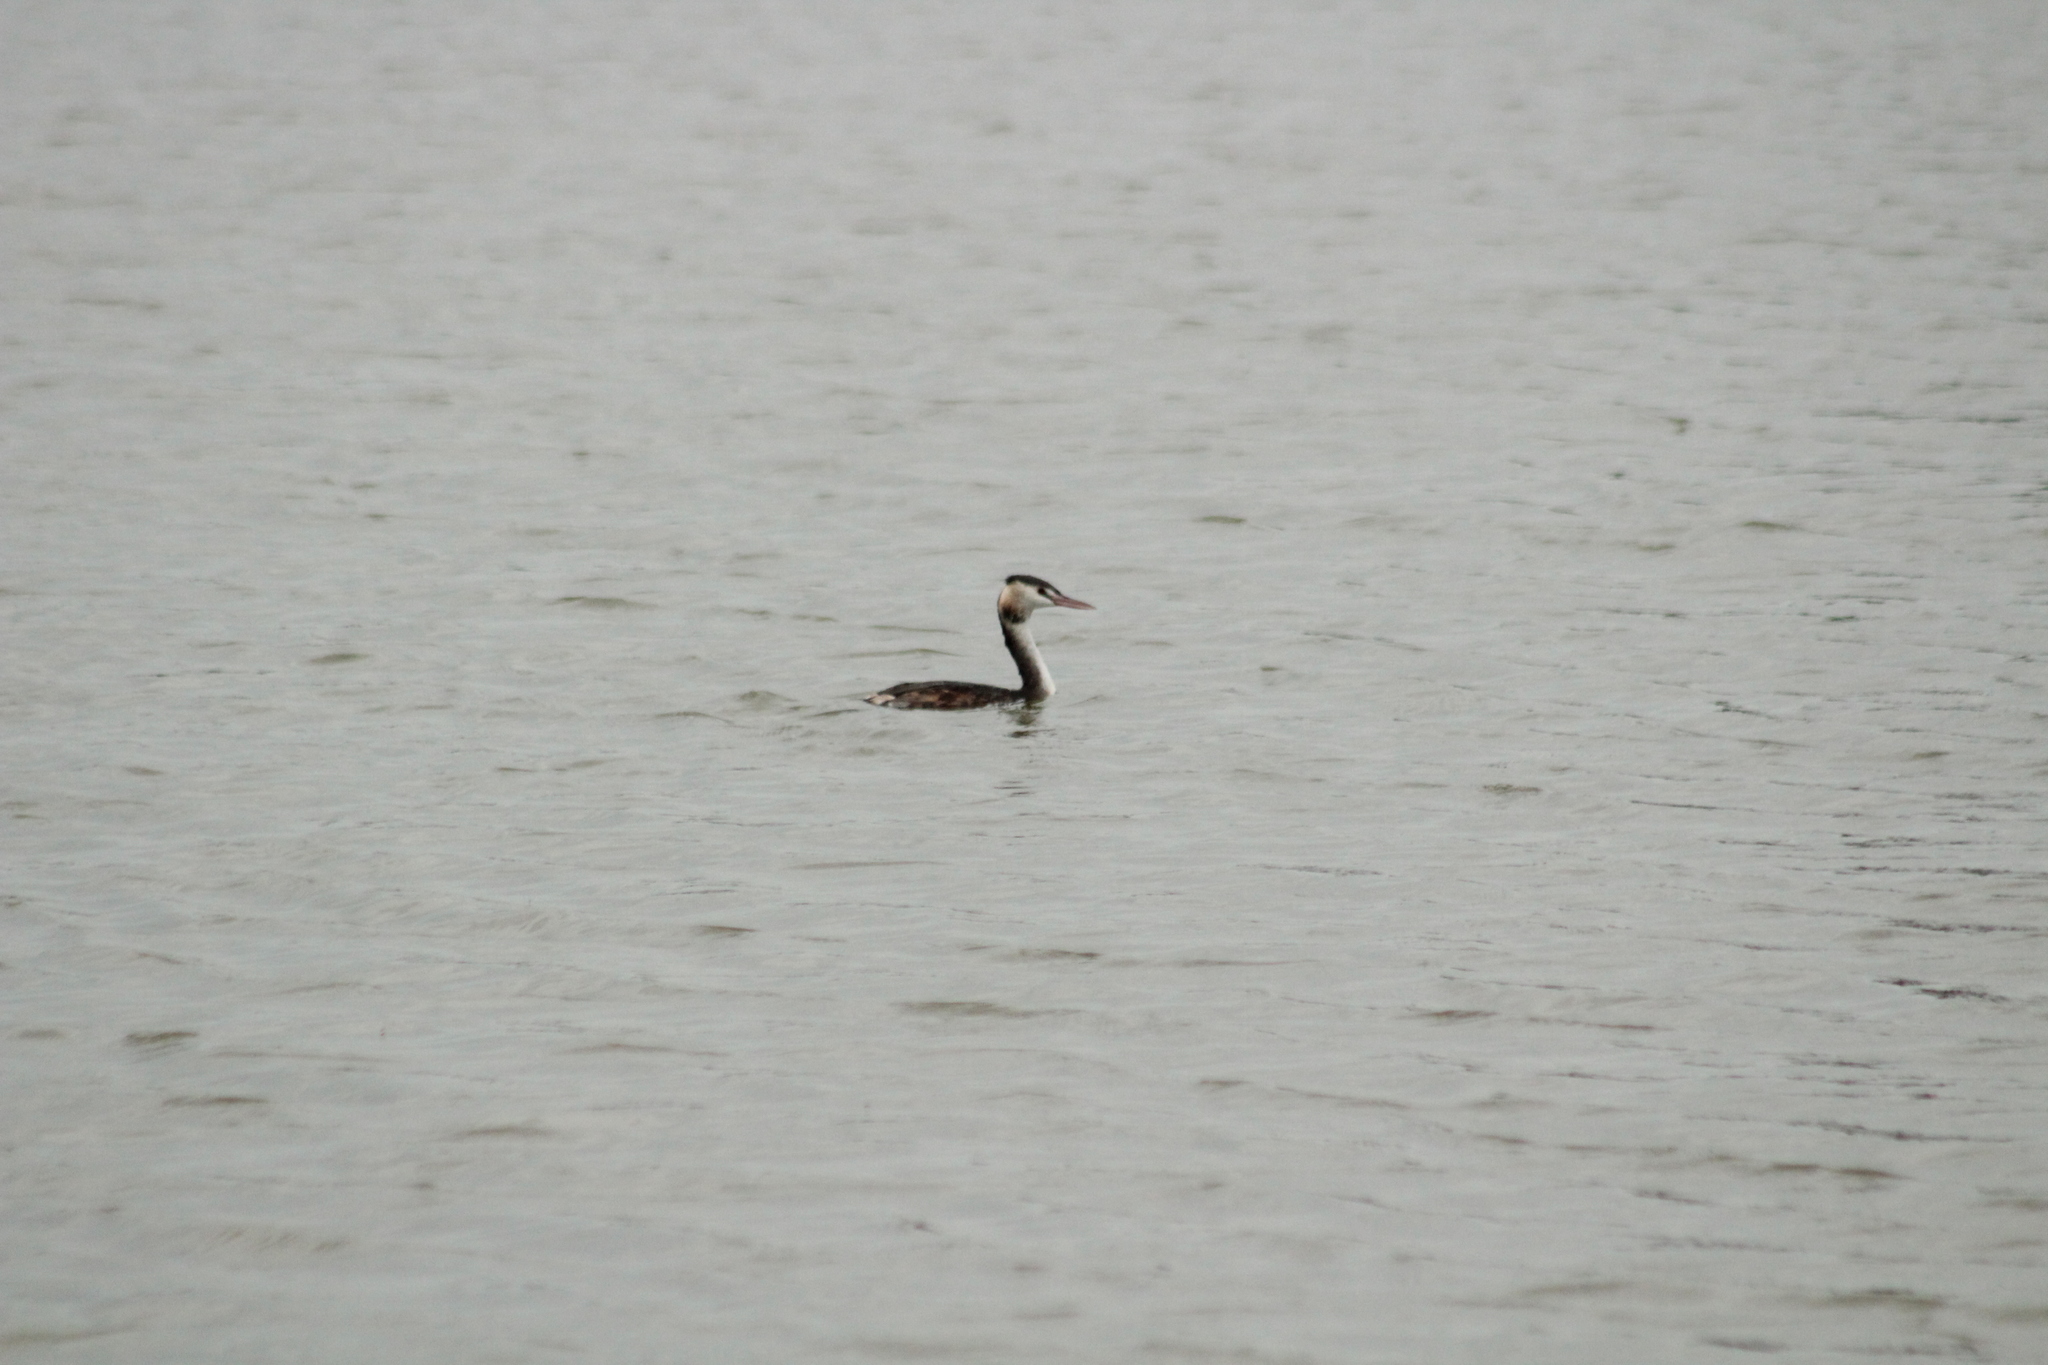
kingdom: Animalia
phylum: Chordata
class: Aves
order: Podicipediformes
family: Podicipedidae
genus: Podiceps
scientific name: Podiceps cristatus
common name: Great crested grebe
